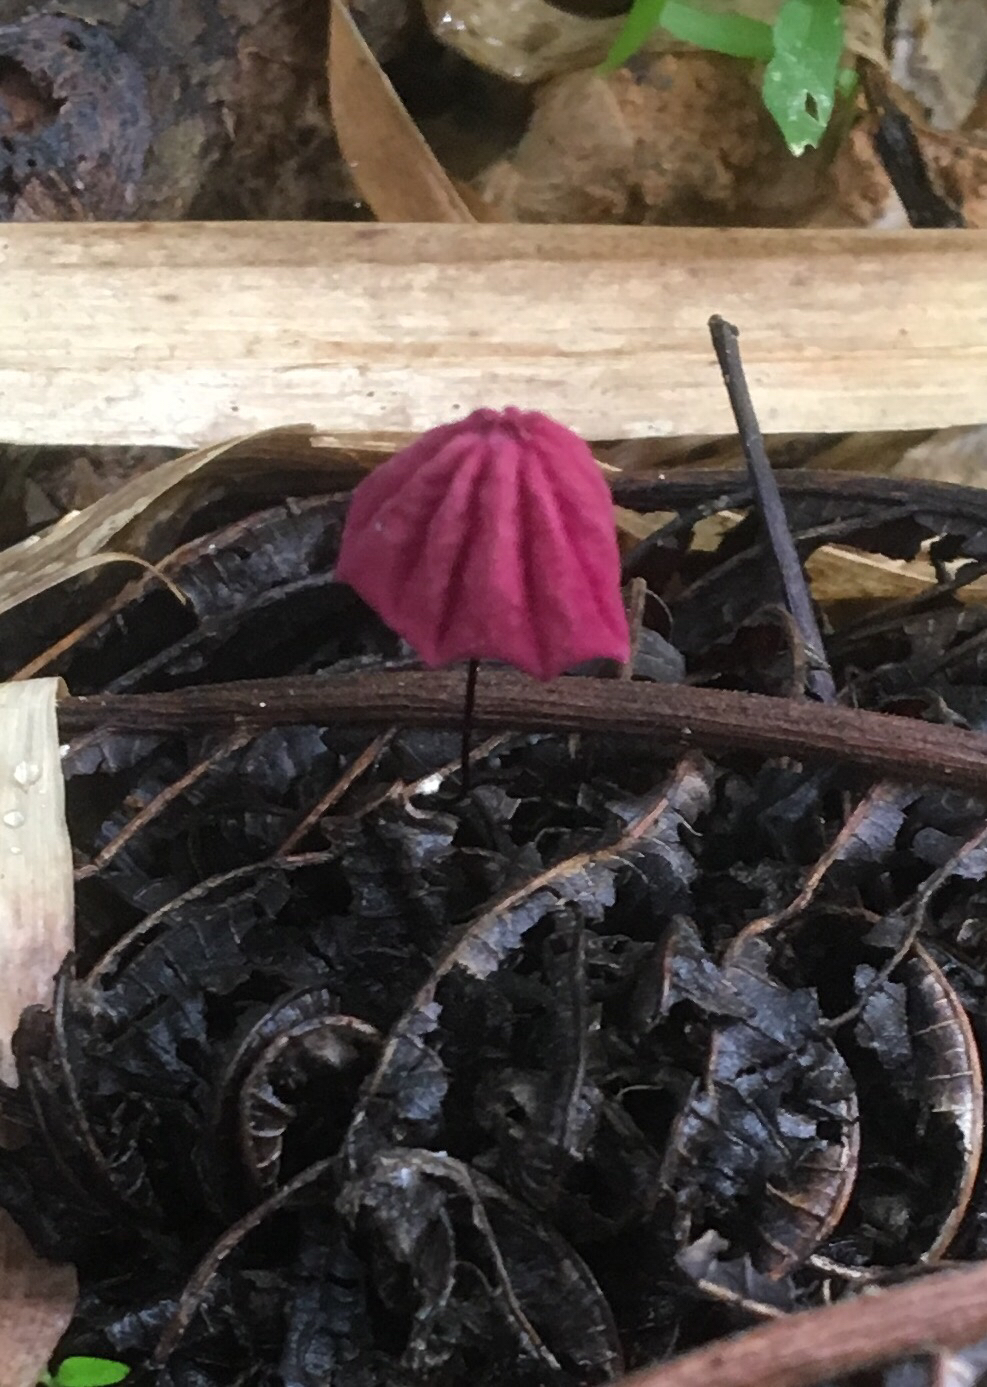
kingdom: Fungi
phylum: Basidiomycota
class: Agaricomycetes
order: Agaricales
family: Marasmiaceae
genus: Marasmius
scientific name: Marasmius haematocephalus
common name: Purple pinwheel
